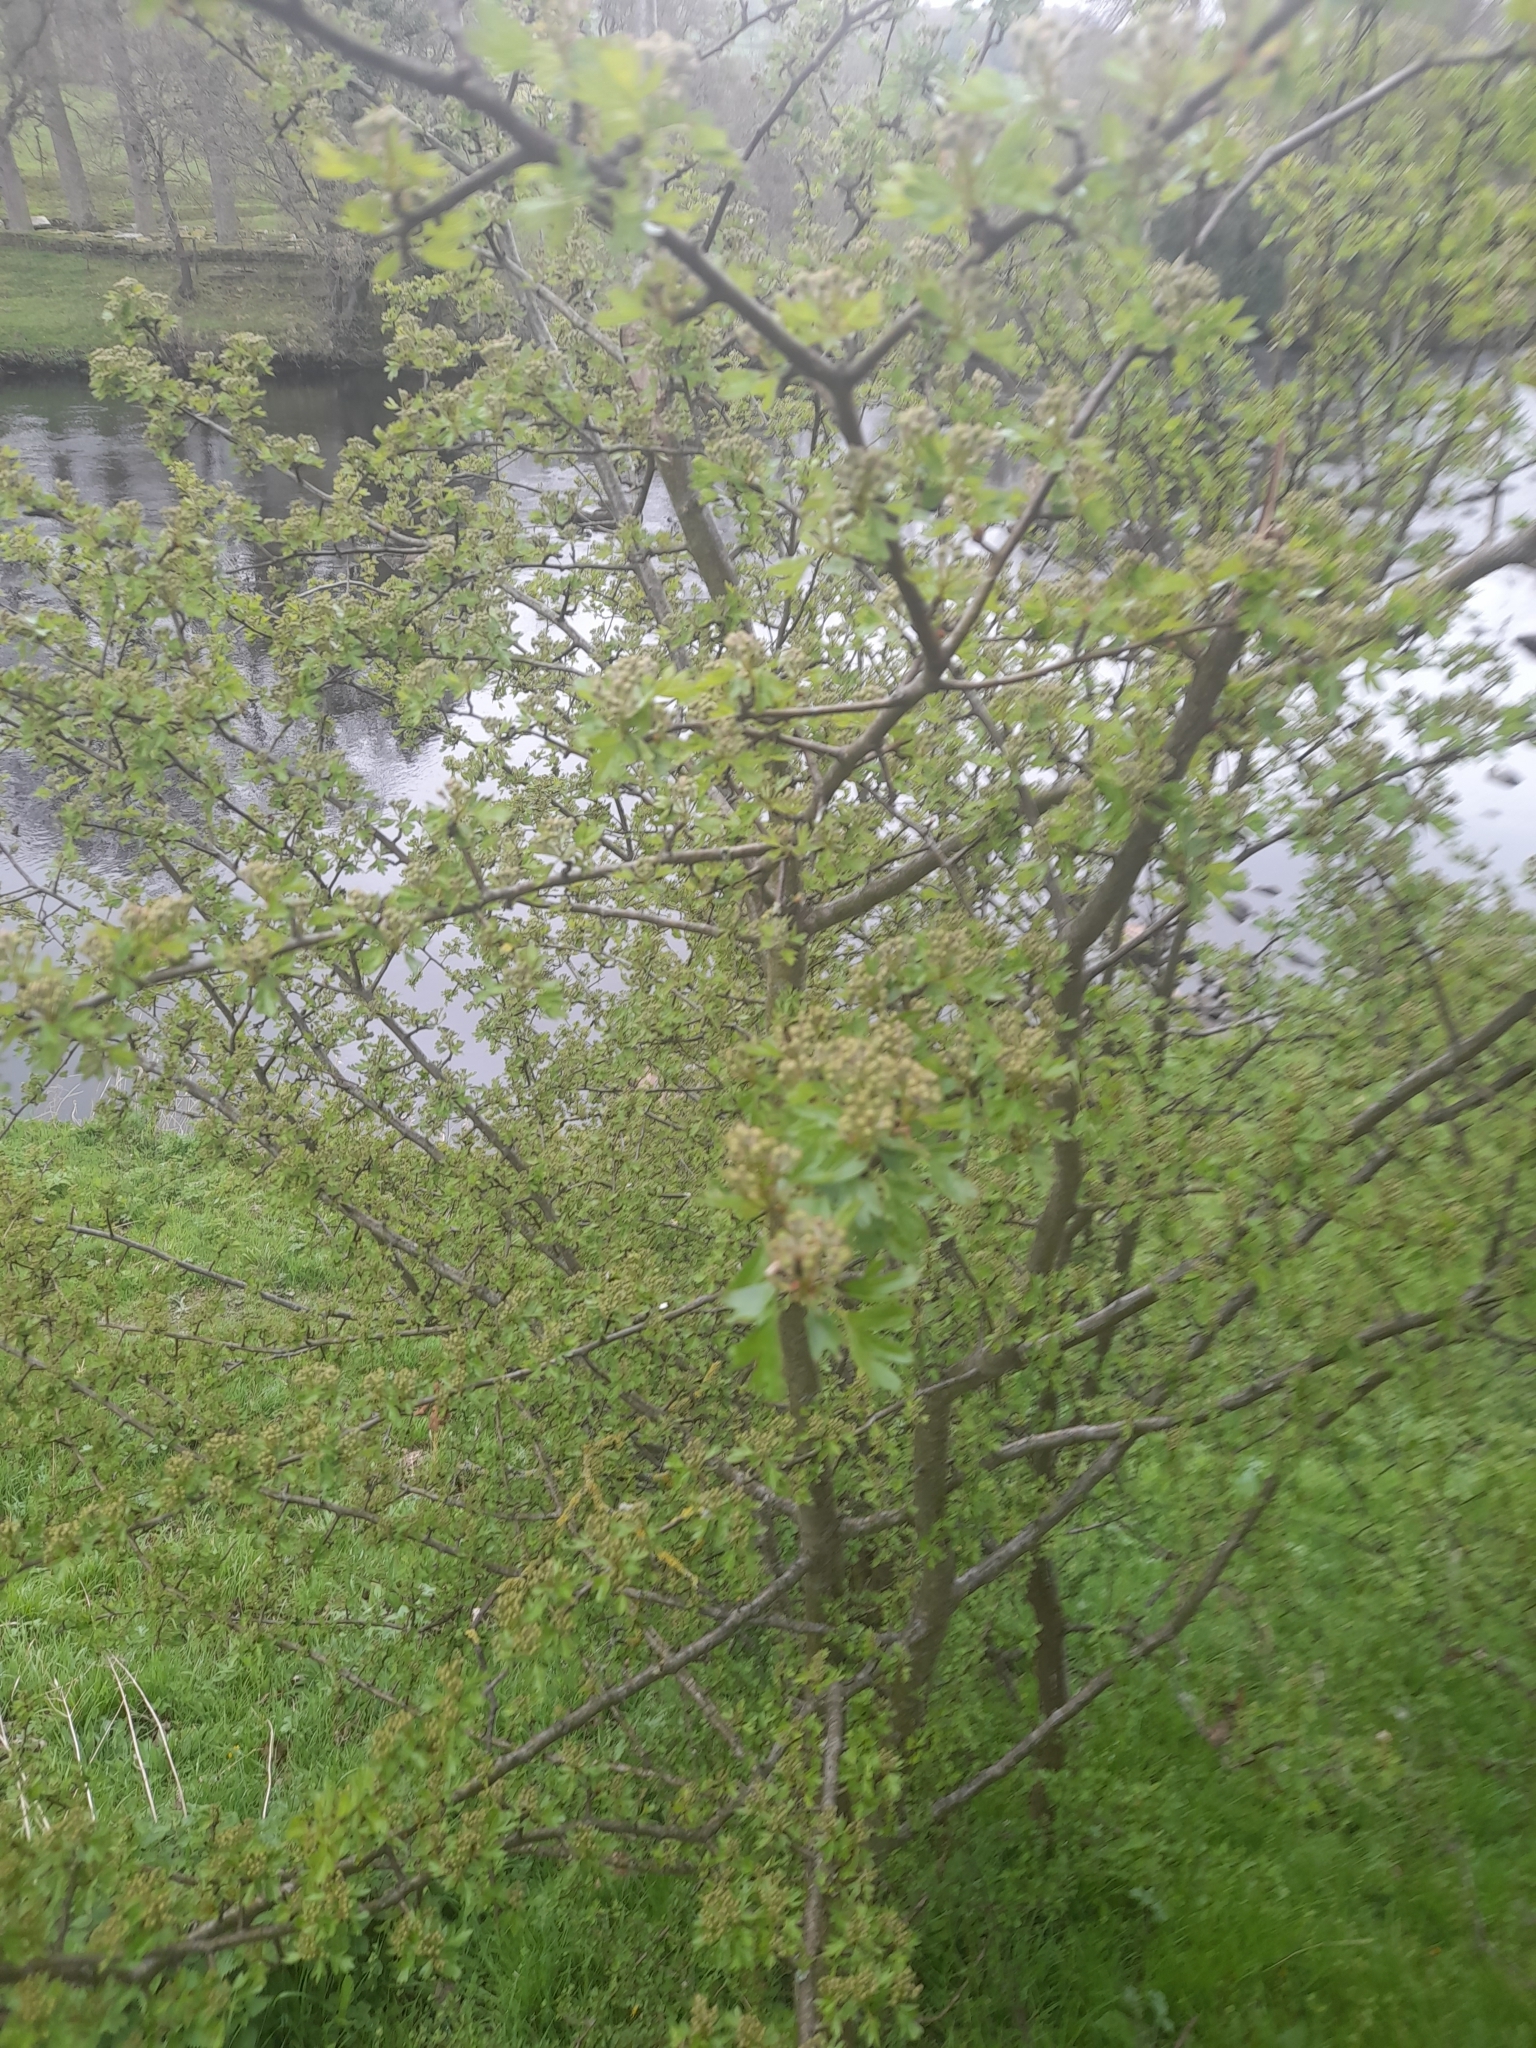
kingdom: Plantae
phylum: Tracheophyta
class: Magnoliopsida
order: Rosales
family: Rosaceae
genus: Crataegus
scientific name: Crataegus monogyna
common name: Hawthorn
